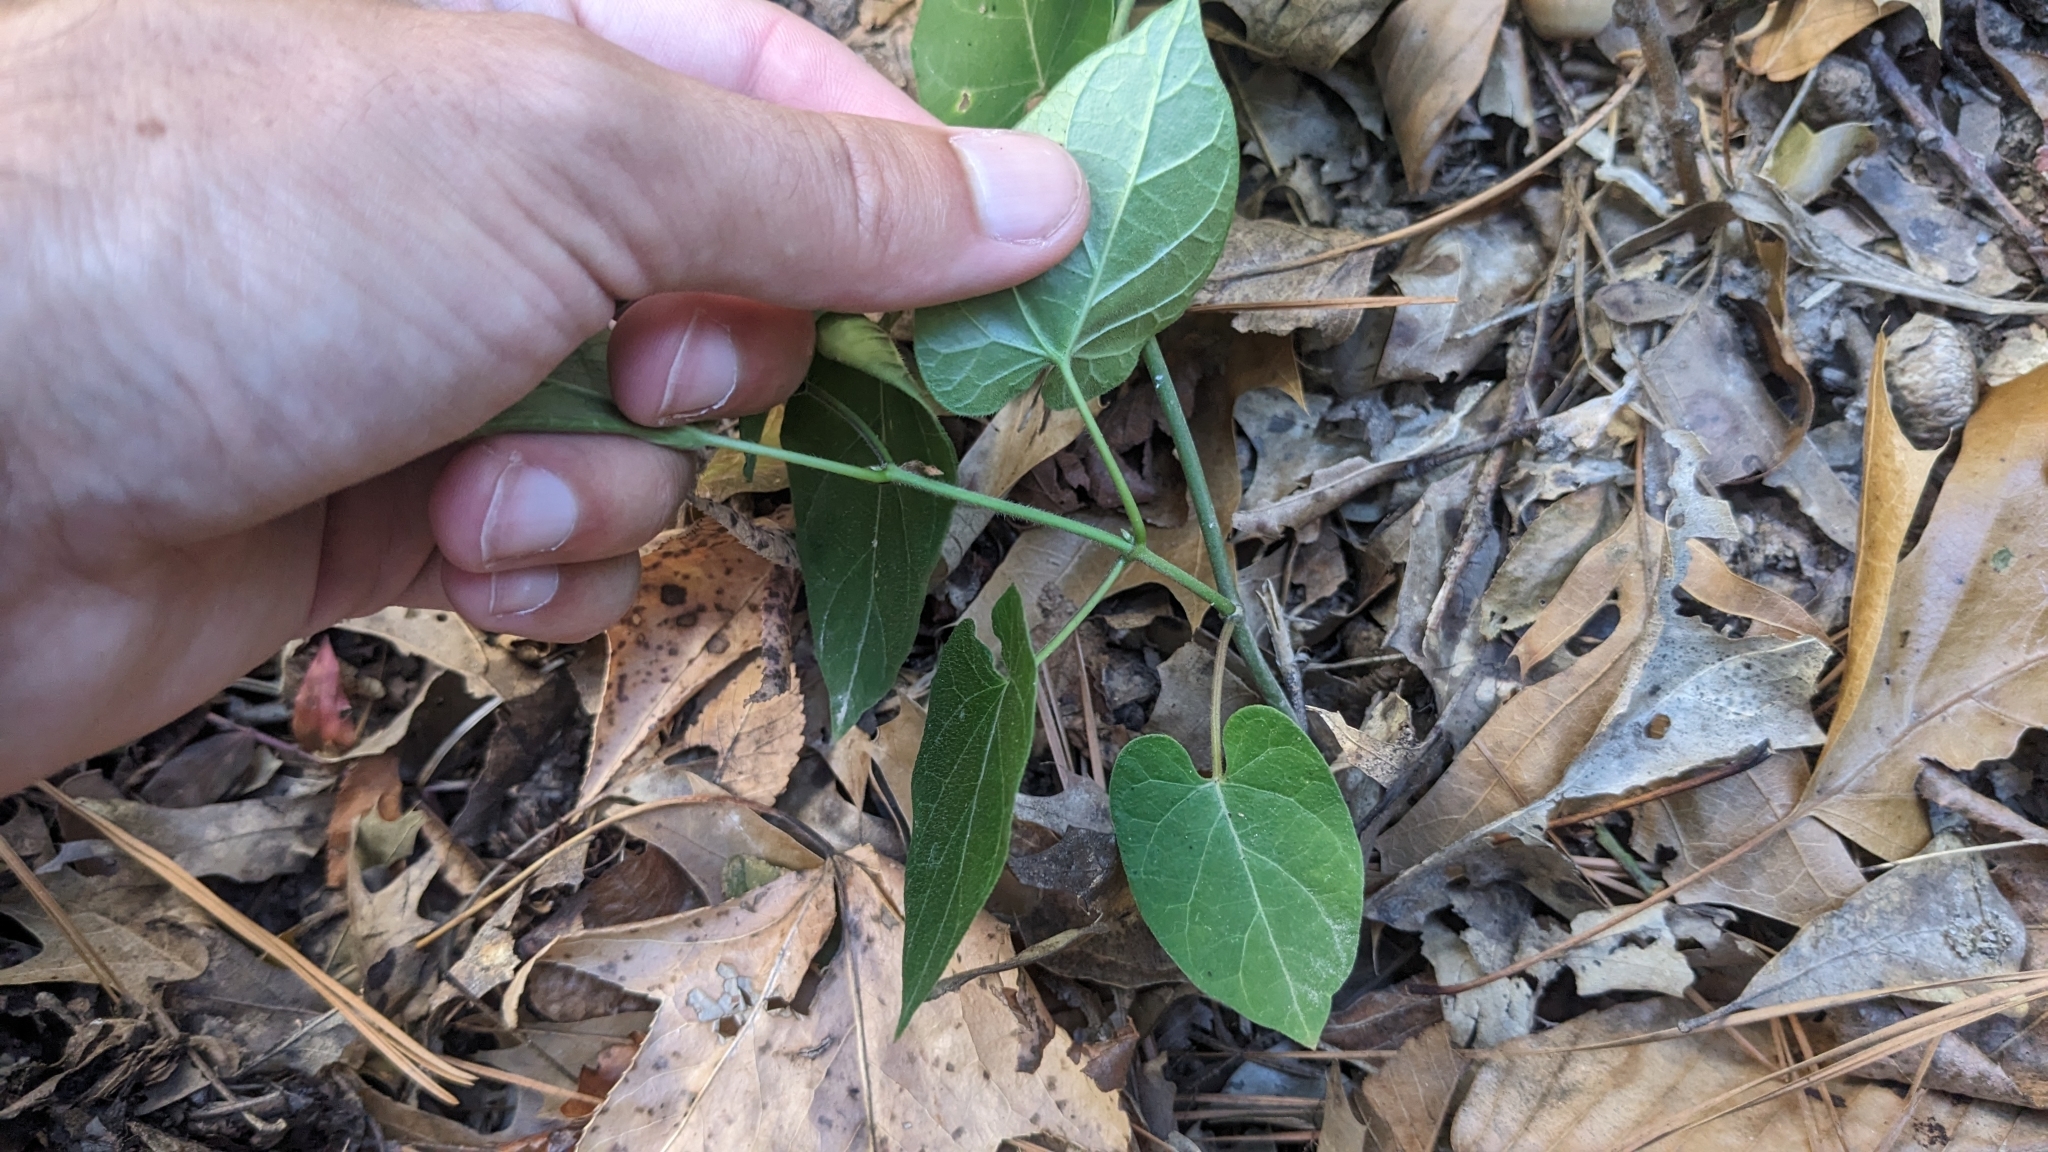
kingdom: Plantae
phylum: Tracheophyta
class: Magnoliopsida
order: Gentianales
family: Apocynaceae
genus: Gonolobus
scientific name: Gonolobus suberosus
